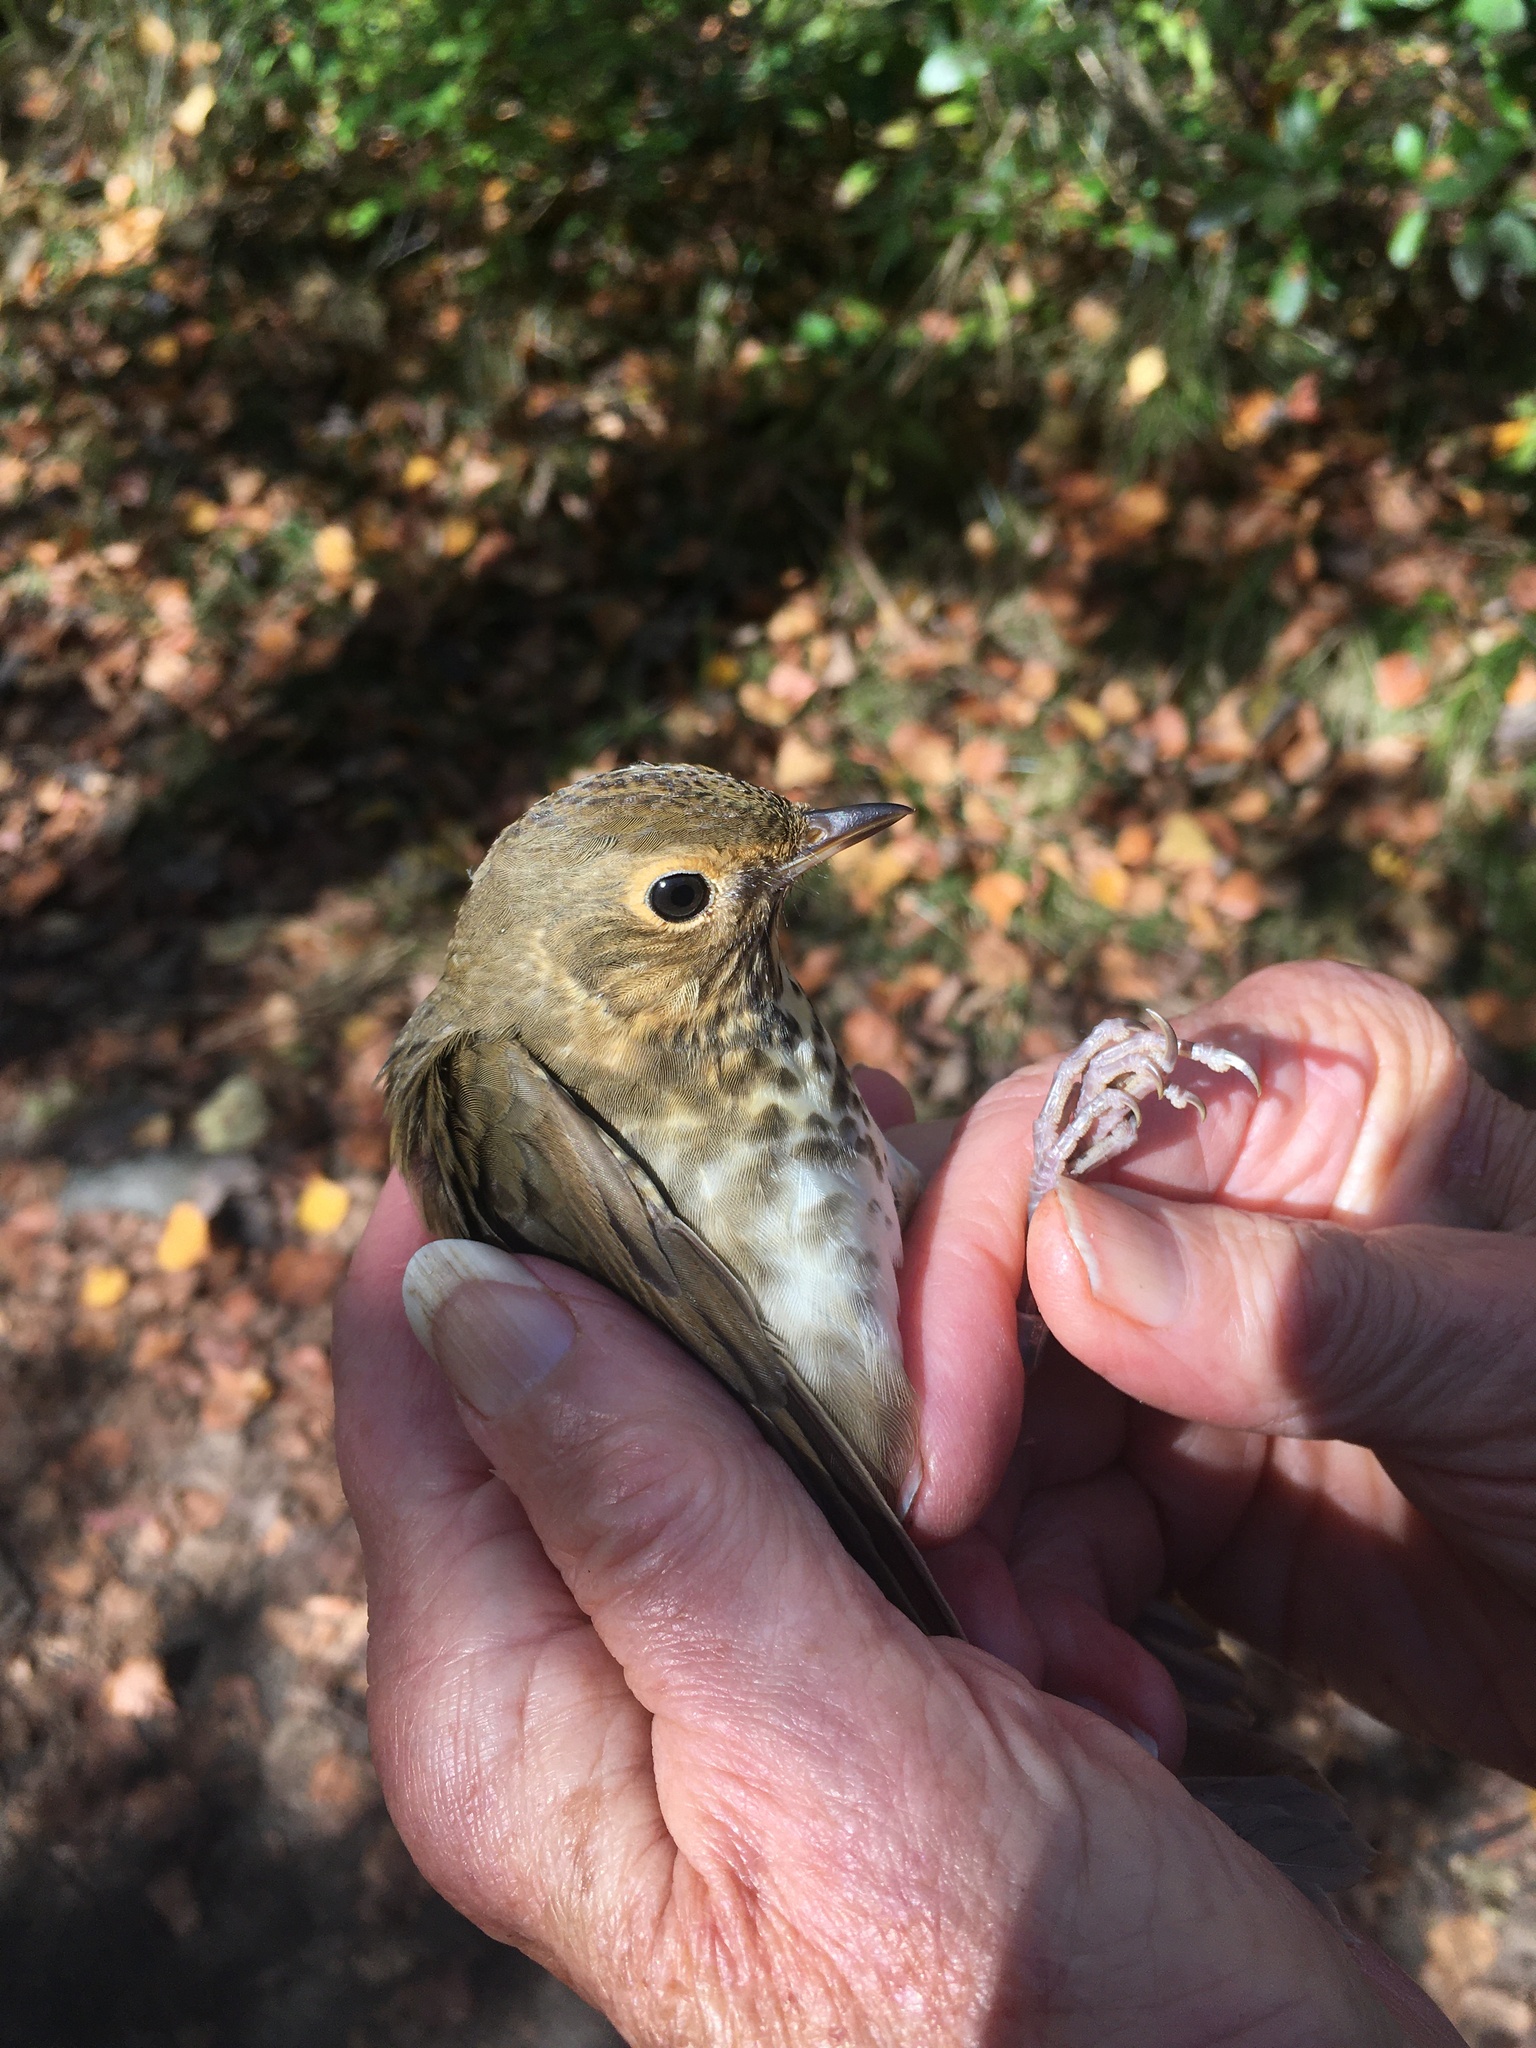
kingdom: Animalia
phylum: Chordata
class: Aves
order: Passeriformes
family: Turdidae
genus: Catharus
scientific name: Catharus ustulatus
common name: Swainson's thrush
